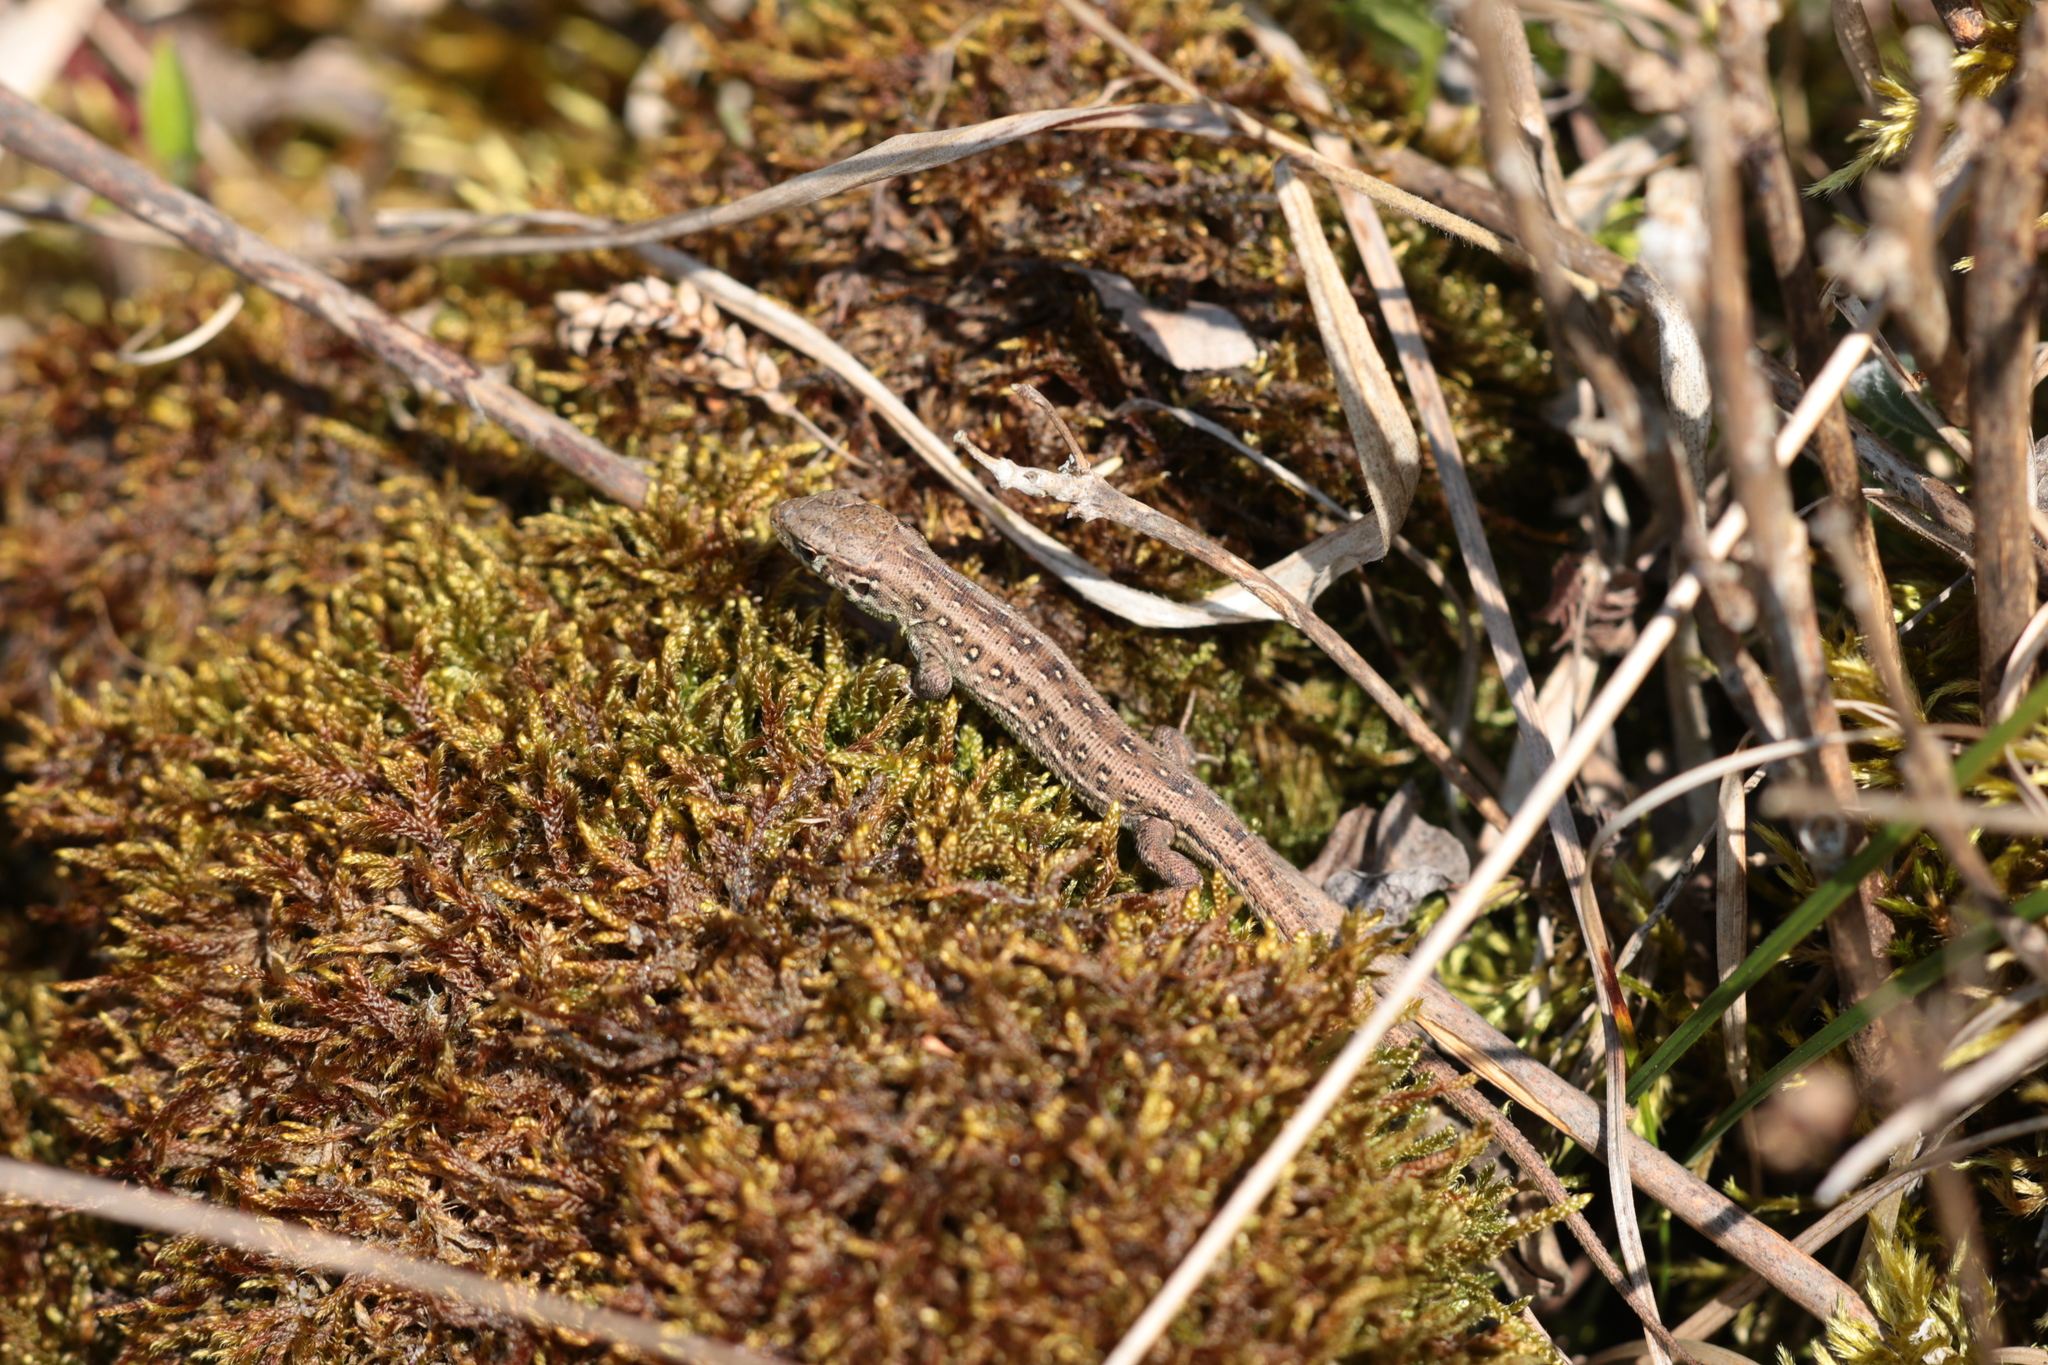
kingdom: Animalia
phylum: Chordata
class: Squamata
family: Lacertidae
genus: Lacerta
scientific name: Lacerta agilis
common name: Sand lizard
